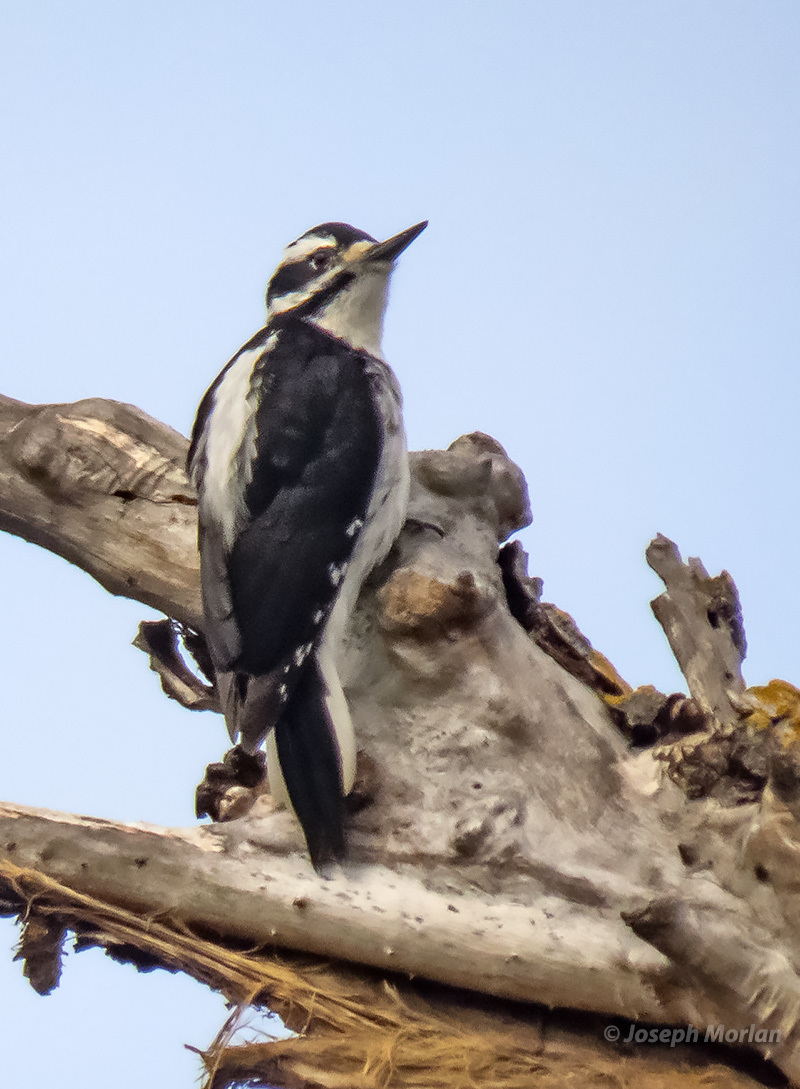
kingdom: Animalia
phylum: Chordata
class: Aves
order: Piciformes
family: Picidae
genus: Leuconotopicus
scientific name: Leuconotopicus villosus
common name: Hairy woodpecker
